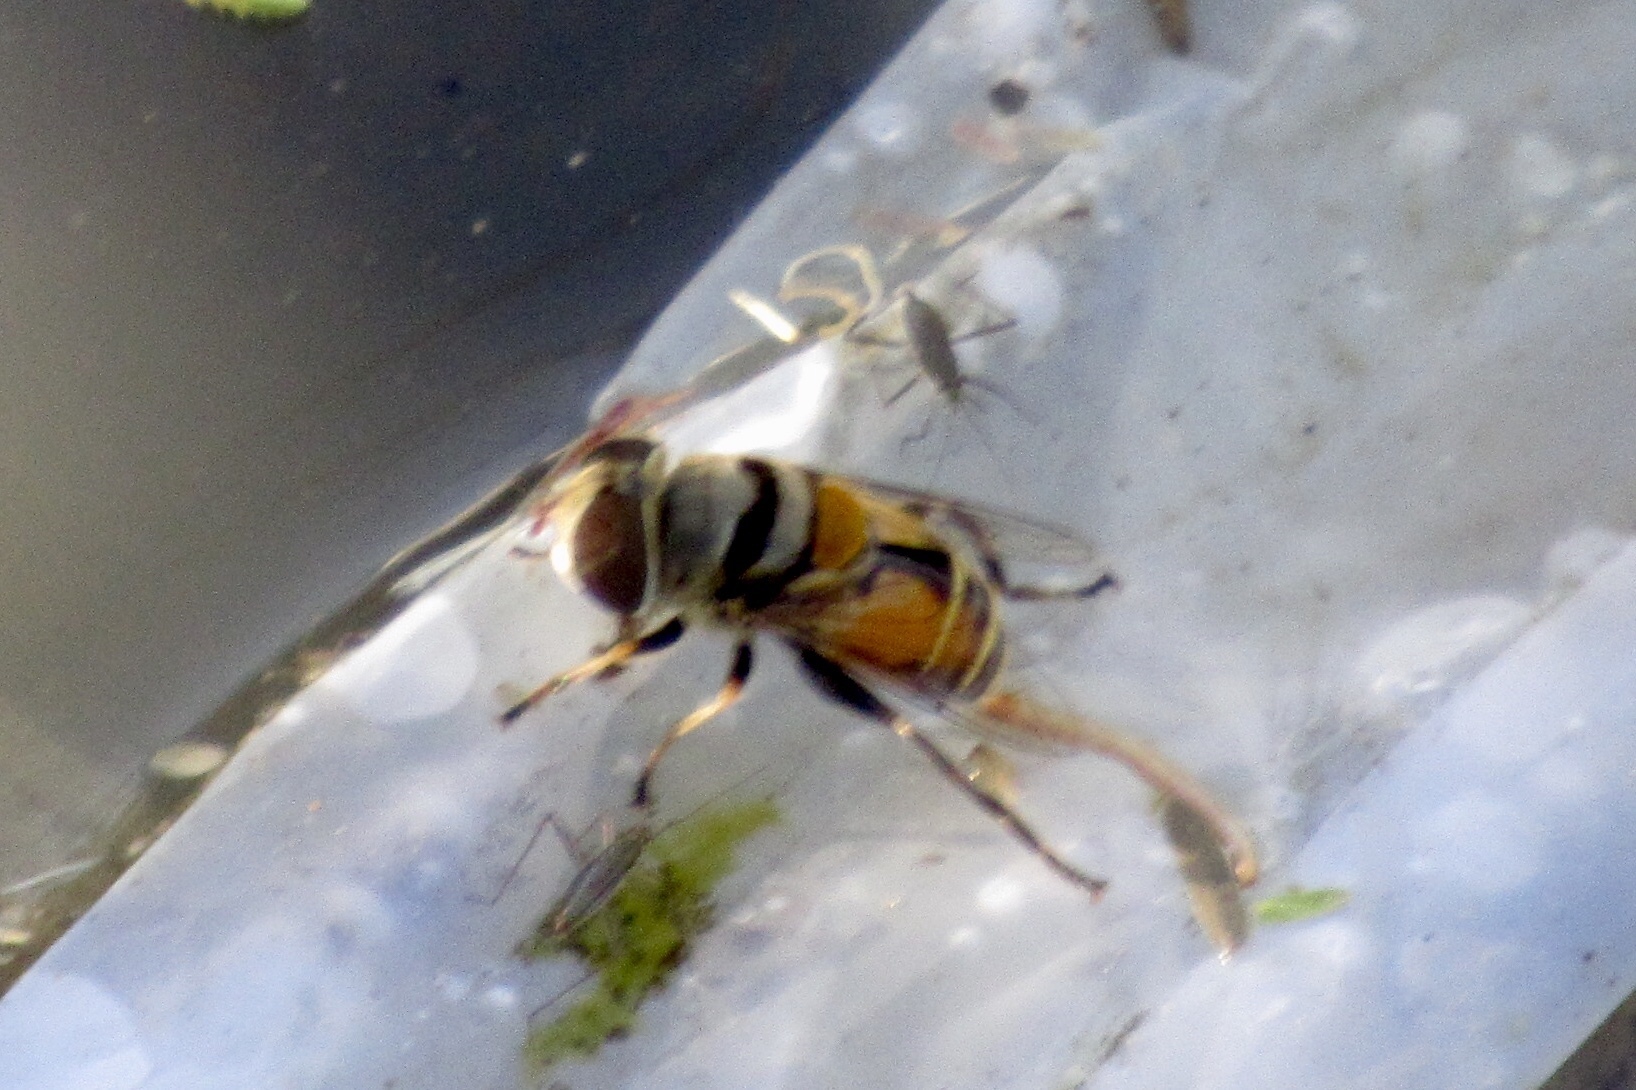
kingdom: Animalia
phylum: Arthropoda
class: Insecta
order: Diptera
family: Syrphidae
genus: Palpada
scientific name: Palpada alhambra
